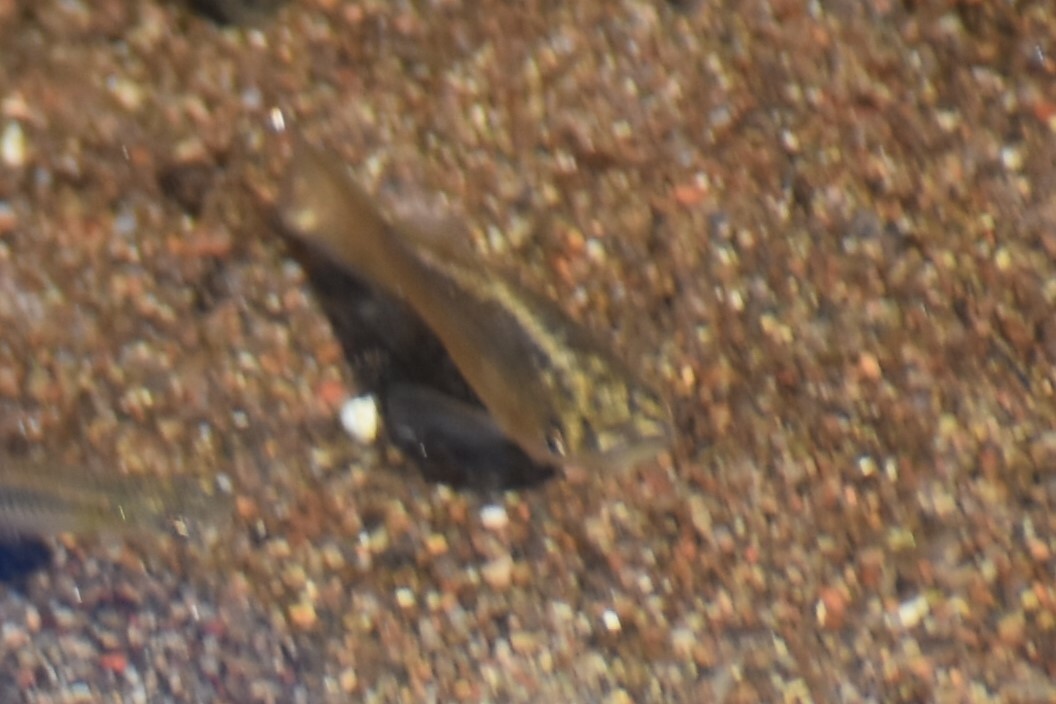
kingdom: Animalia
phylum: Chordata
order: Cyprinodontiformes
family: Poeciliidae
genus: Poecilia
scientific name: Poecilia latipinna
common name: Sailfin molly
